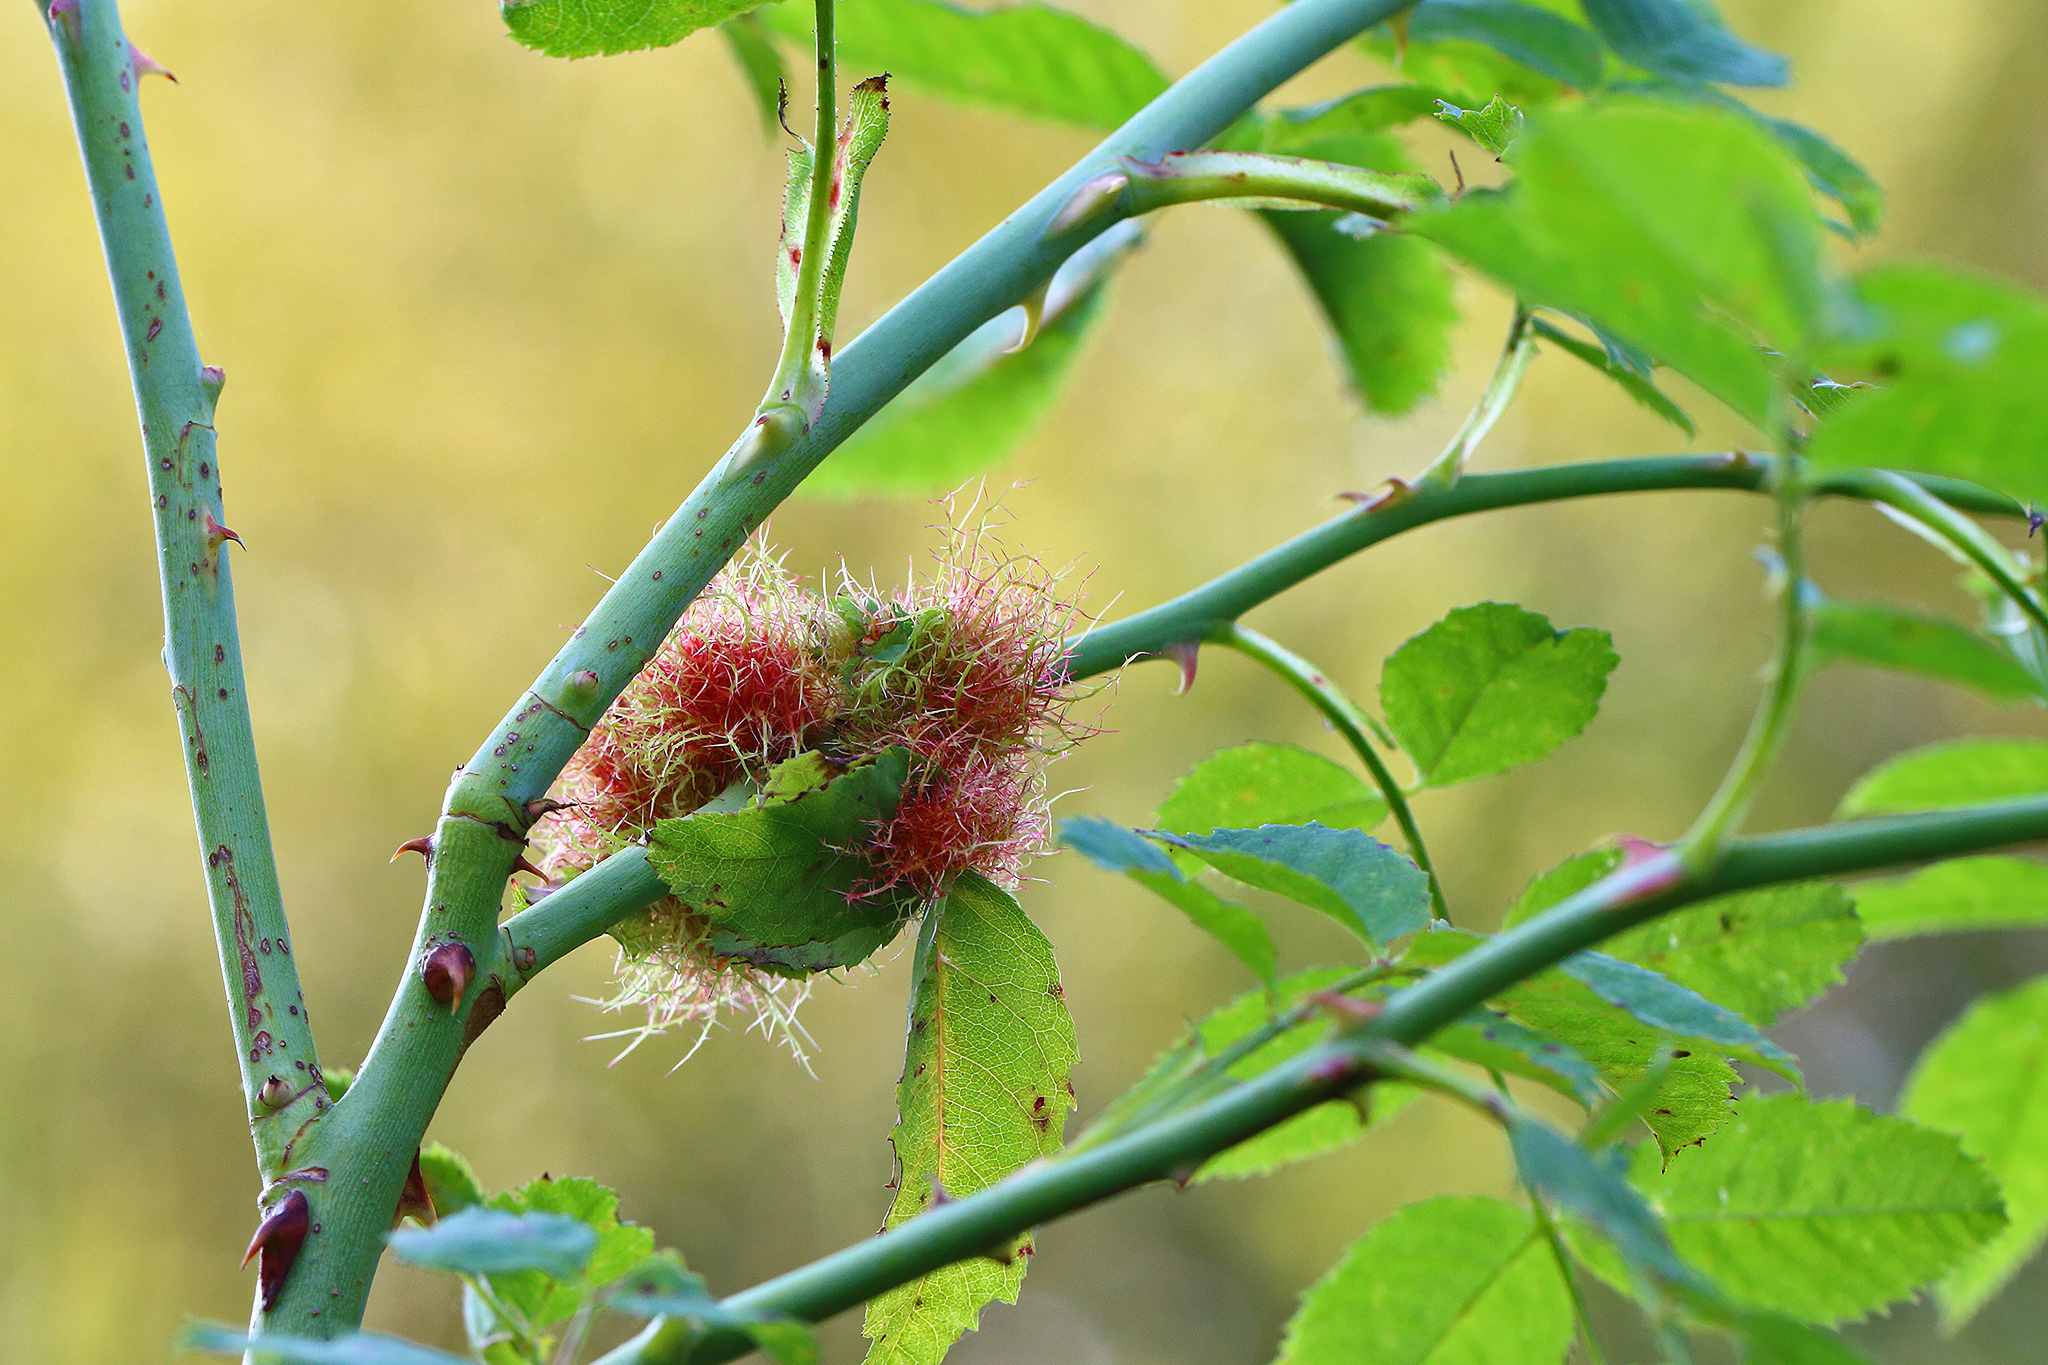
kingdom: Animalia
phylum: Arthropoda
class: Insecta
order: Hymenoptera
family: Cynipidae
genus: Diplolepis
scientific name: Diplolepis rosae
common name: Bedeguar gall
